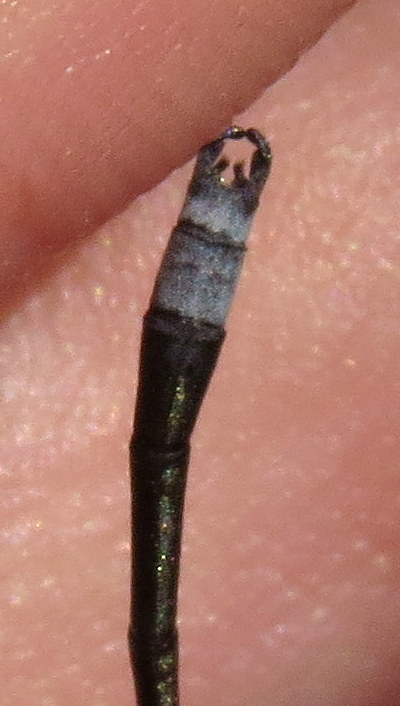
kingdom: Animalia
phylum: Arthropoda
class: Insecta
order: Odonata
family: Lestidae
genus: Lestes
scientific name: Lestes congener
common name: Spotted spreadwing
